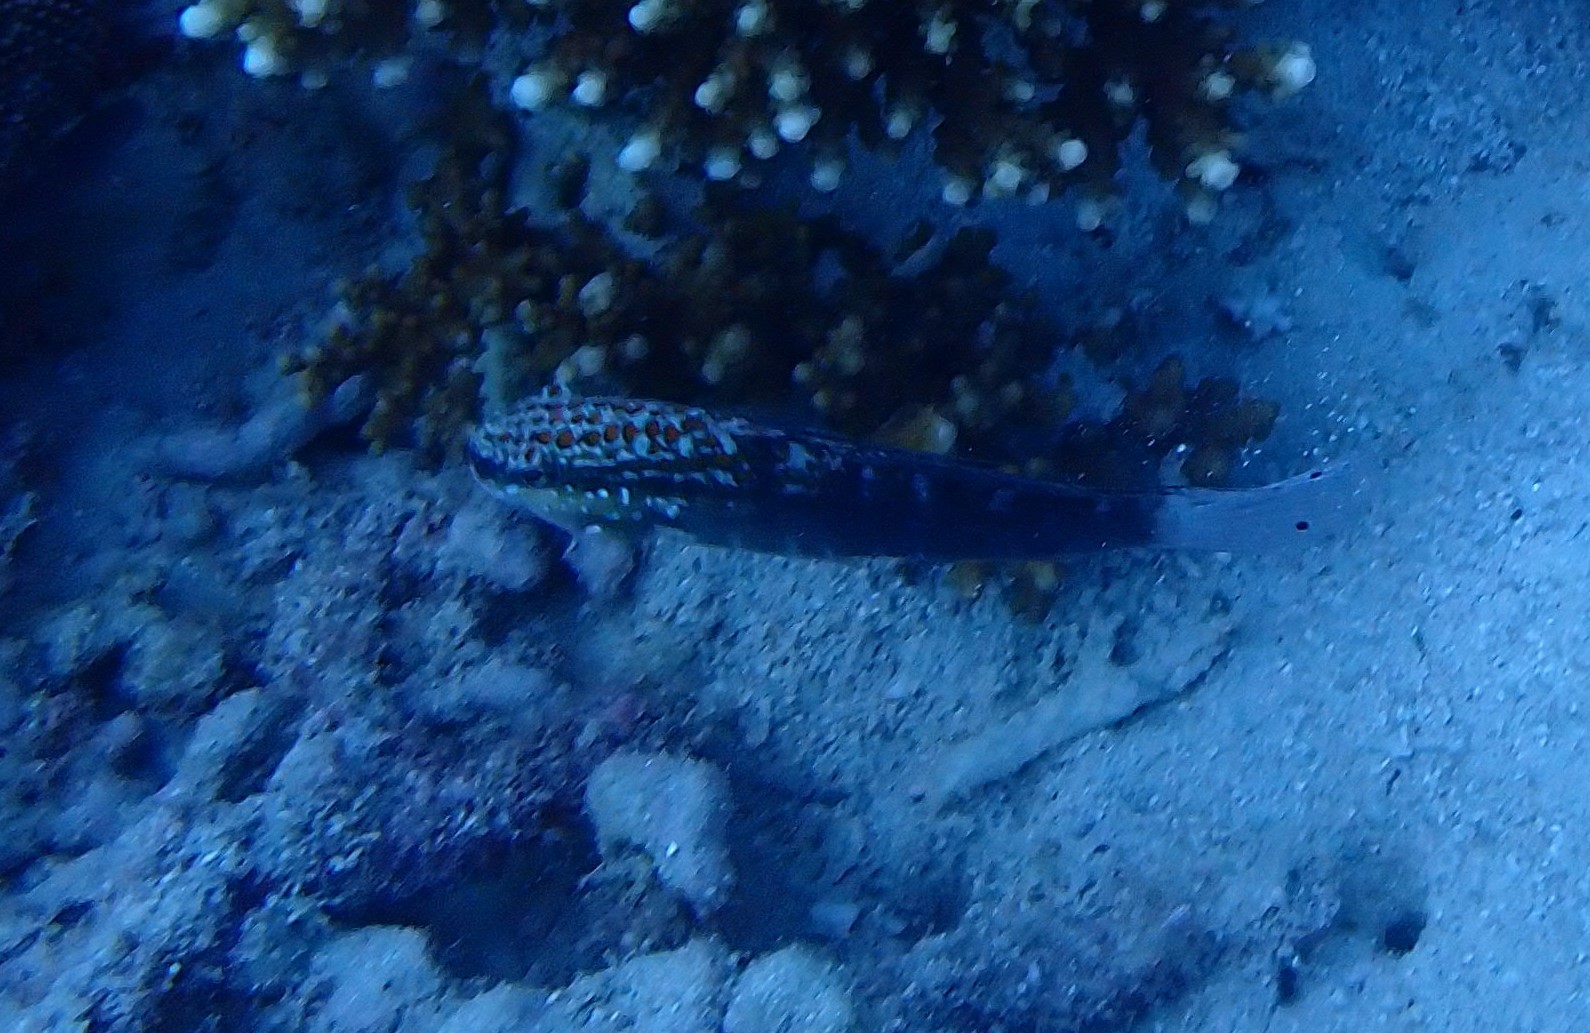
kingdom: Animalia
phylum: Chordata
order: Perciformes
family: Gobiidae
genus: Amblygobius
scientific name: Amblygobius phalaena
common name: Banded goby
